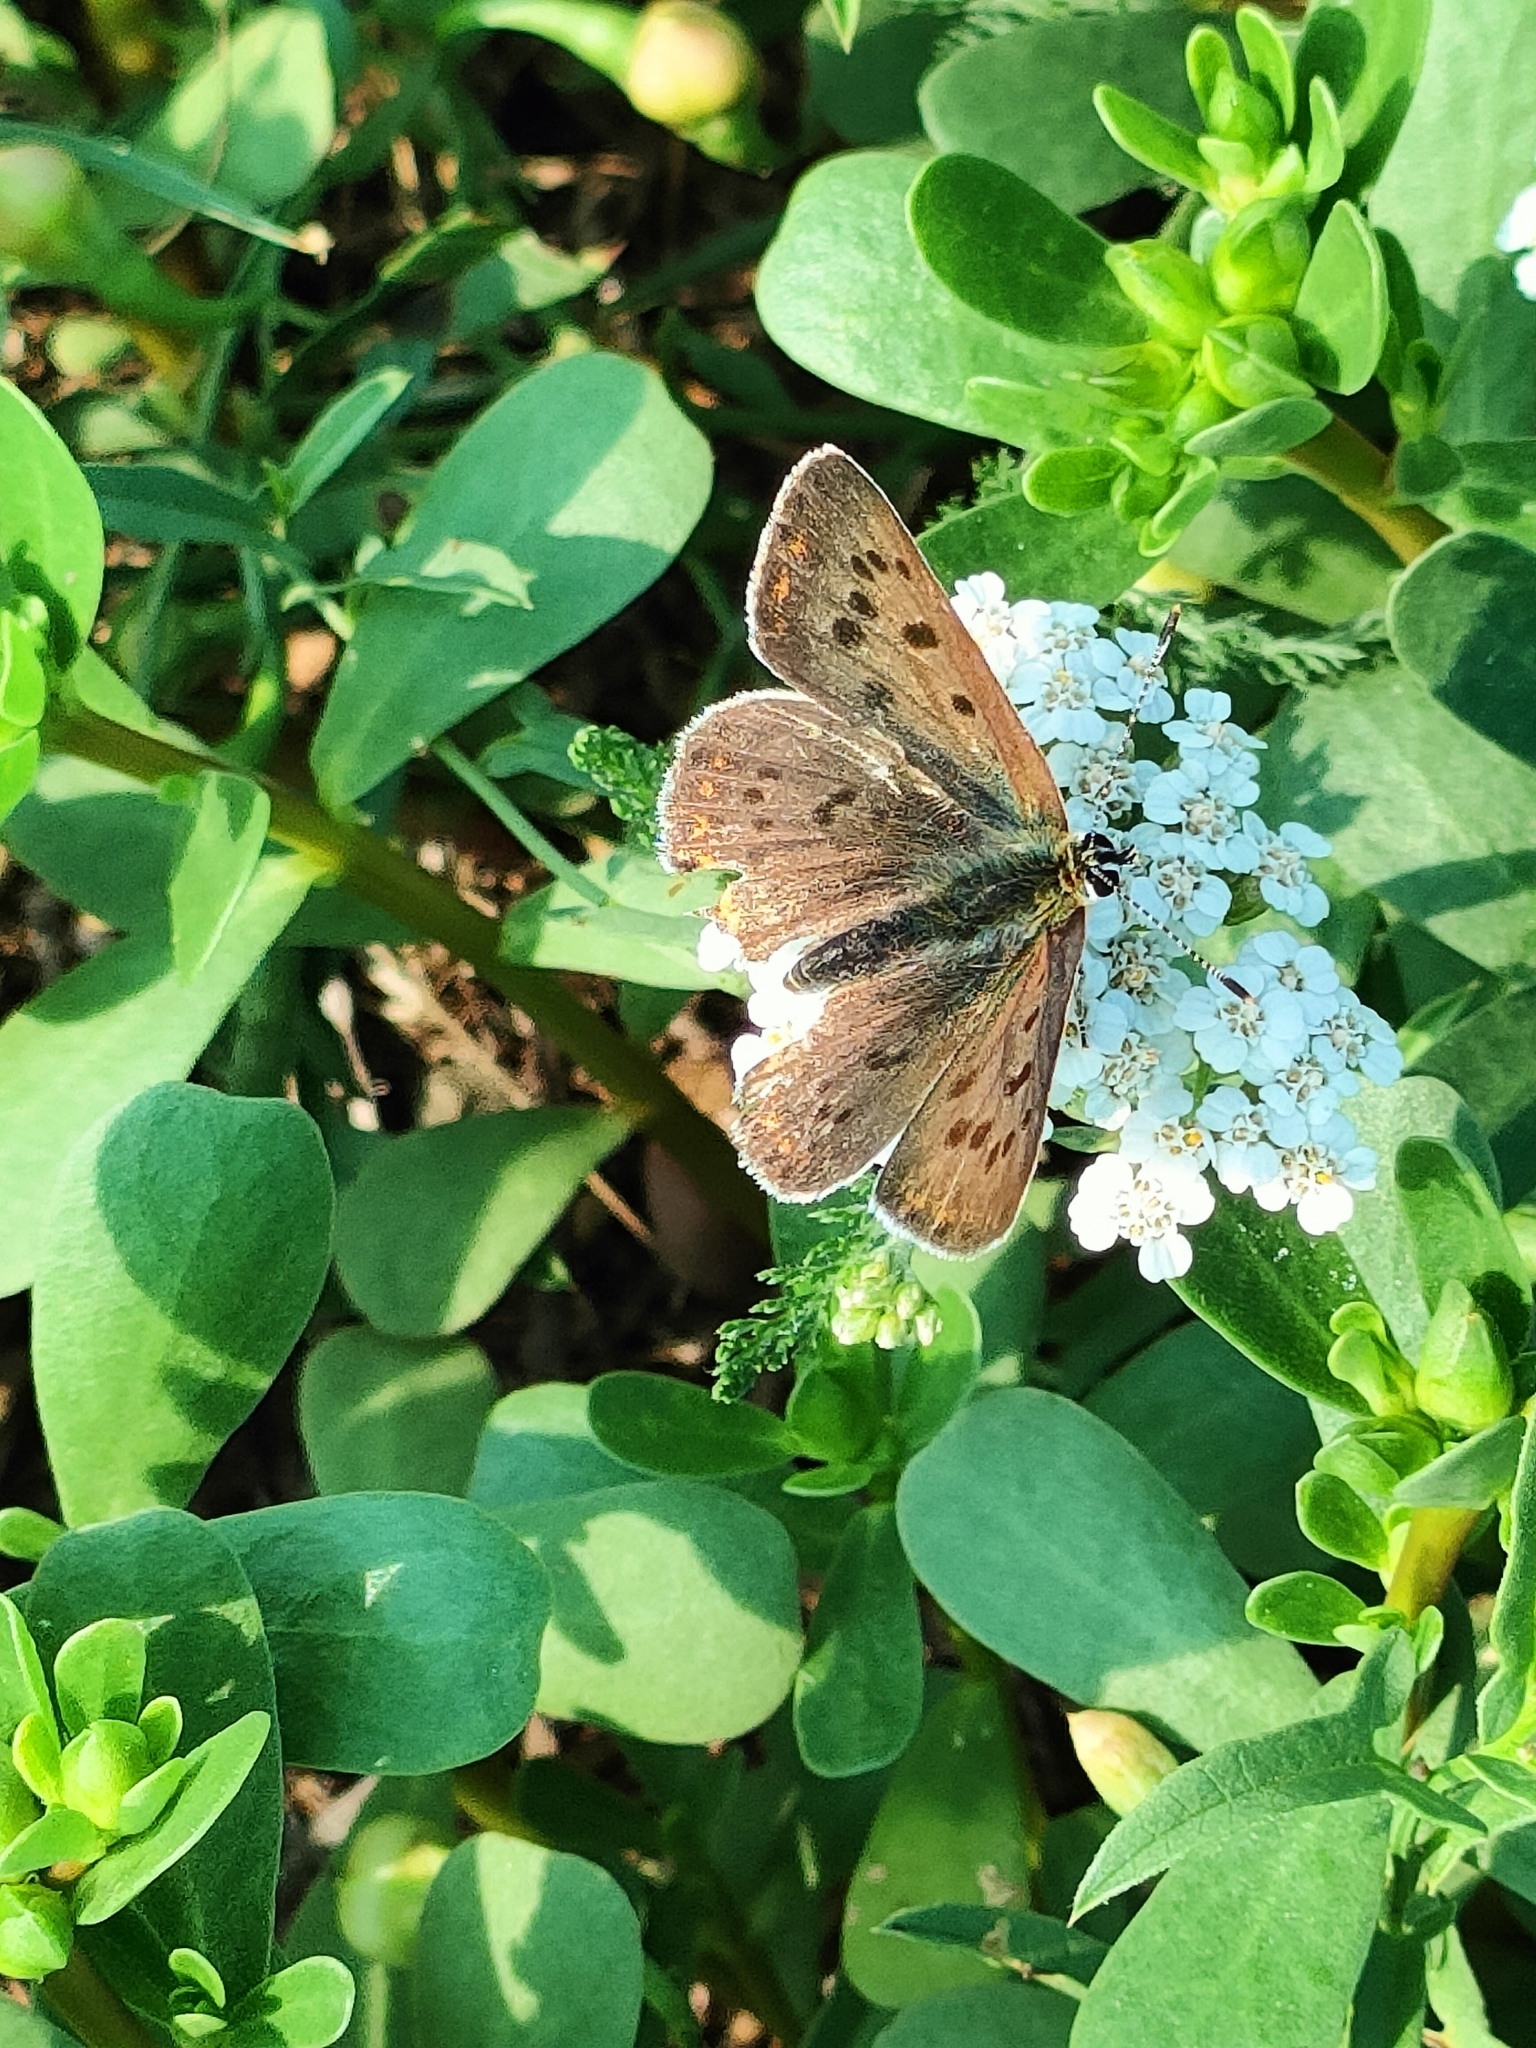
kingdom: Animalia
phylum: Arthropoda
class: Insecta
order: Lepidoptera
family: Lycaenidae
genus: Loweia
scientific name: Loweia tityrus
